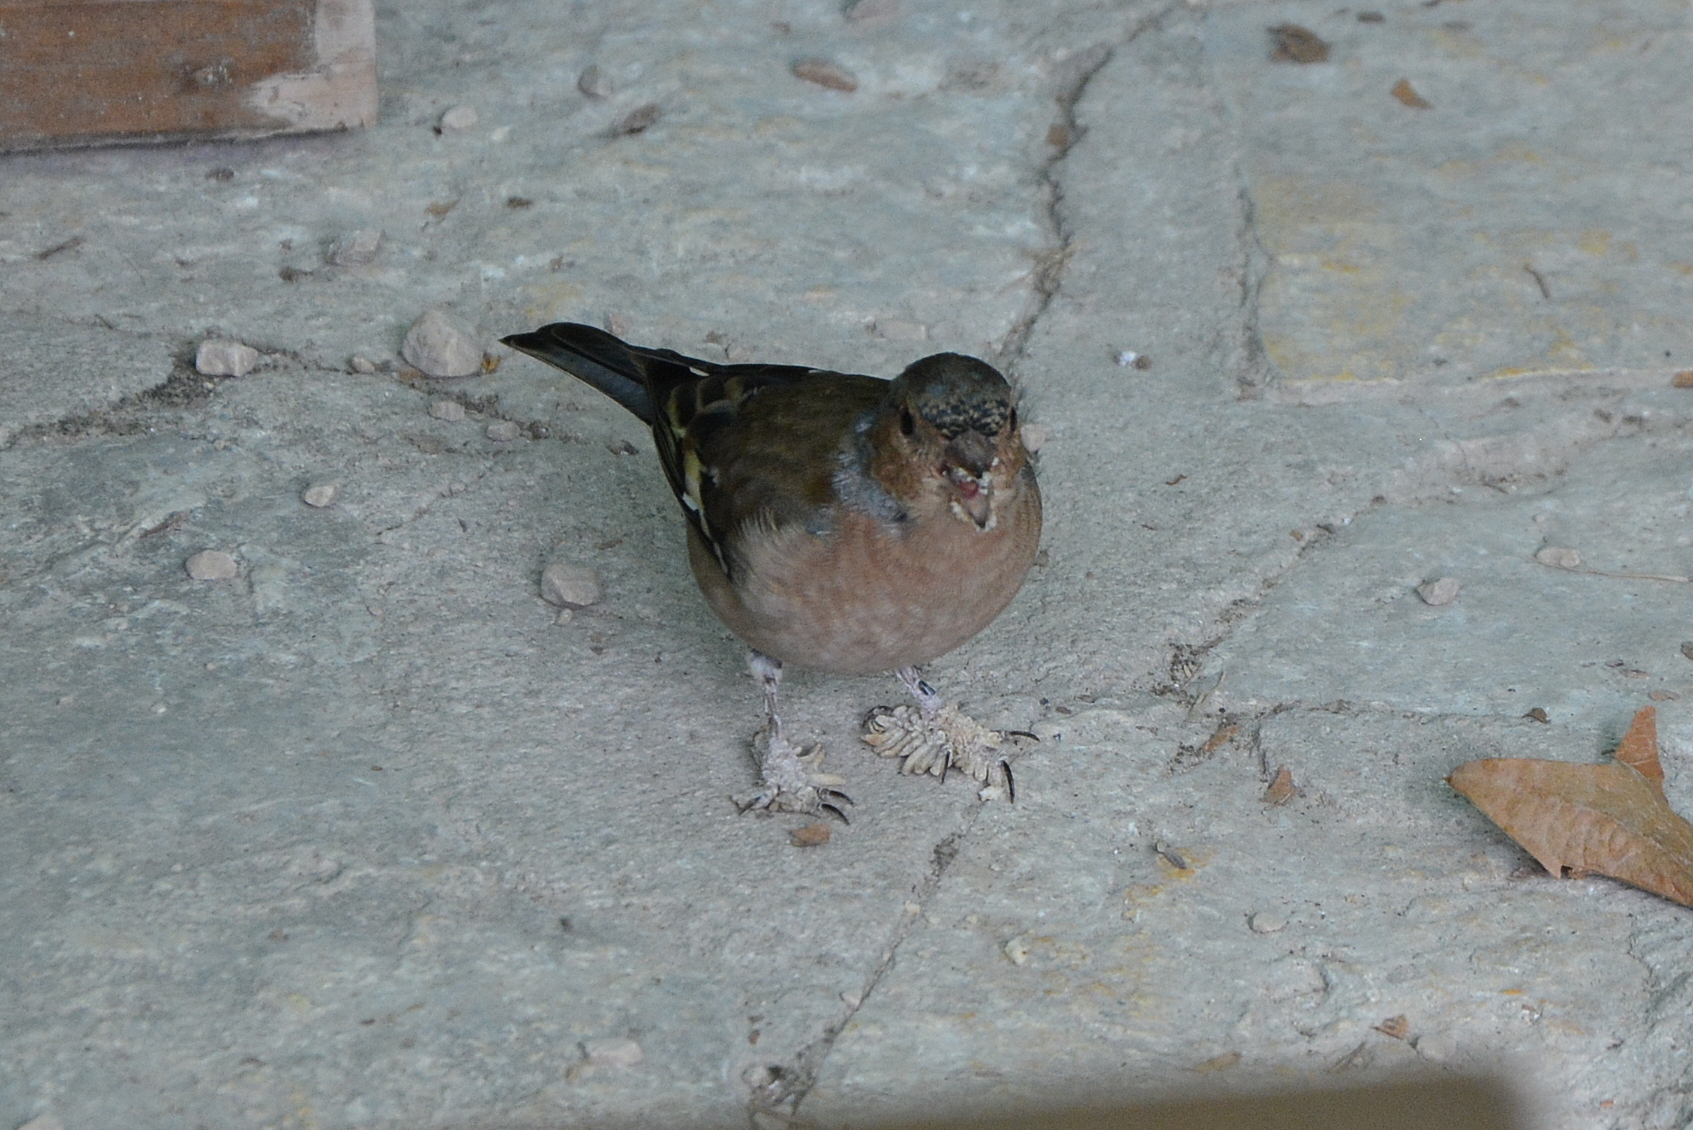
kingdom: Animalia
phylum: Chordata
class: Aves
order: Passeriformes
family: Fringillidae
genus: Fringilla
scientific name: Fringilla coelebs
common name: Common chaffinch
